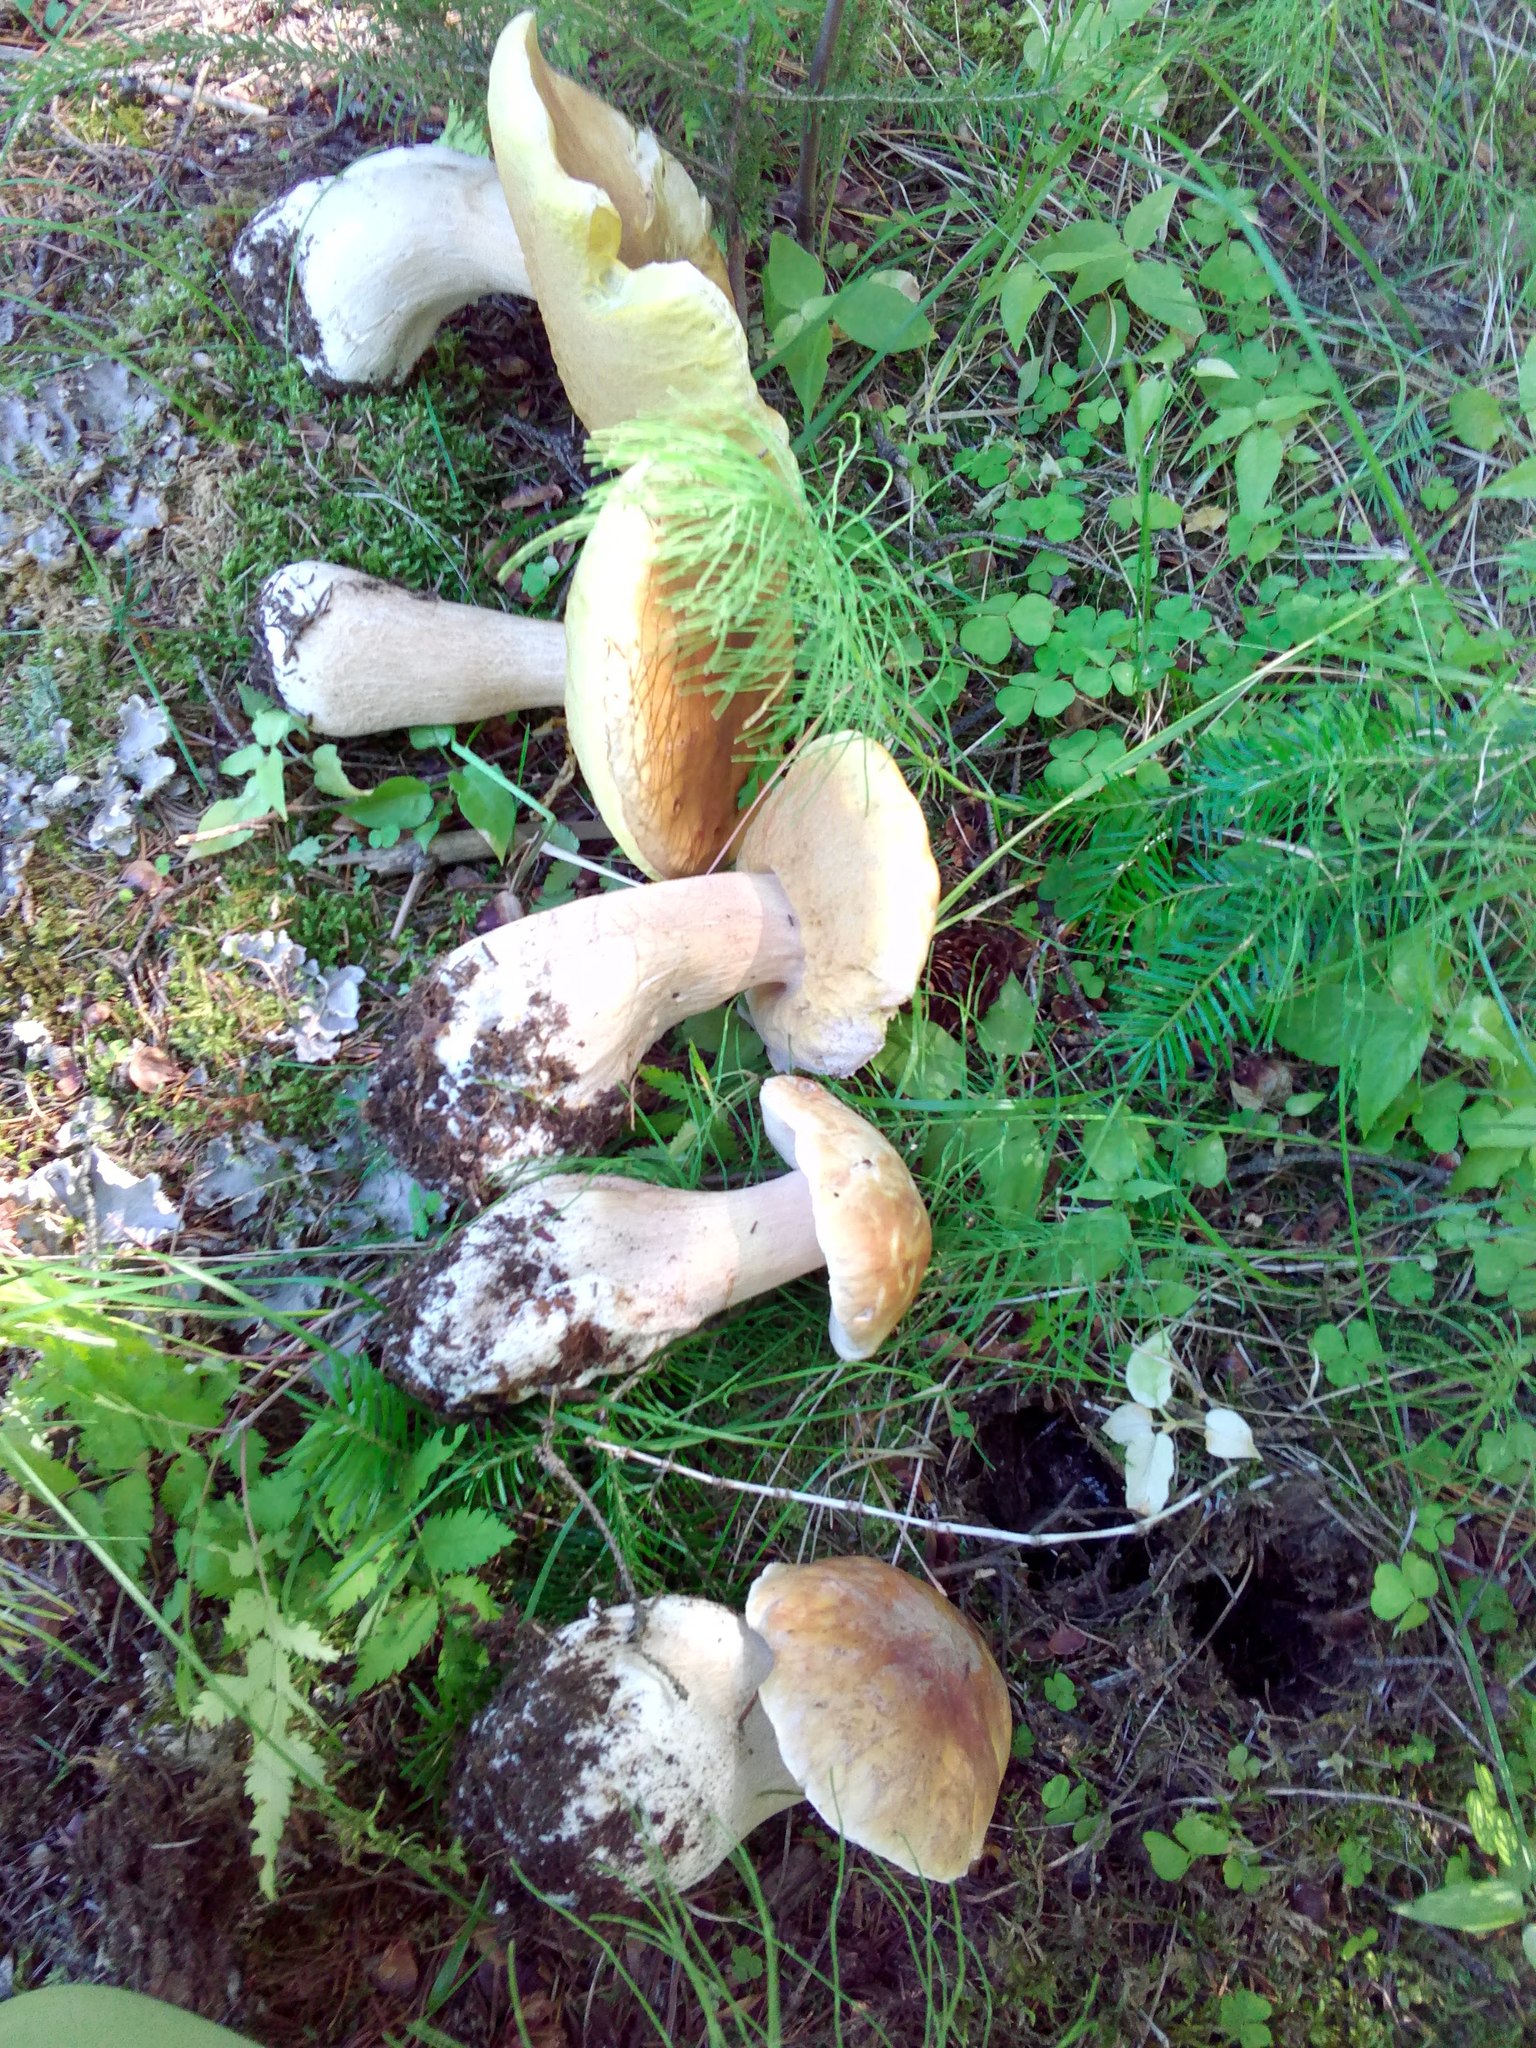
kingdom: Fungi
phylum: Basidiomycota
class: Agaricomycetes
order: Boletales
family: Boletaceae
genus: Boletus
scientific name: Boletus edulis
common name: Cep
